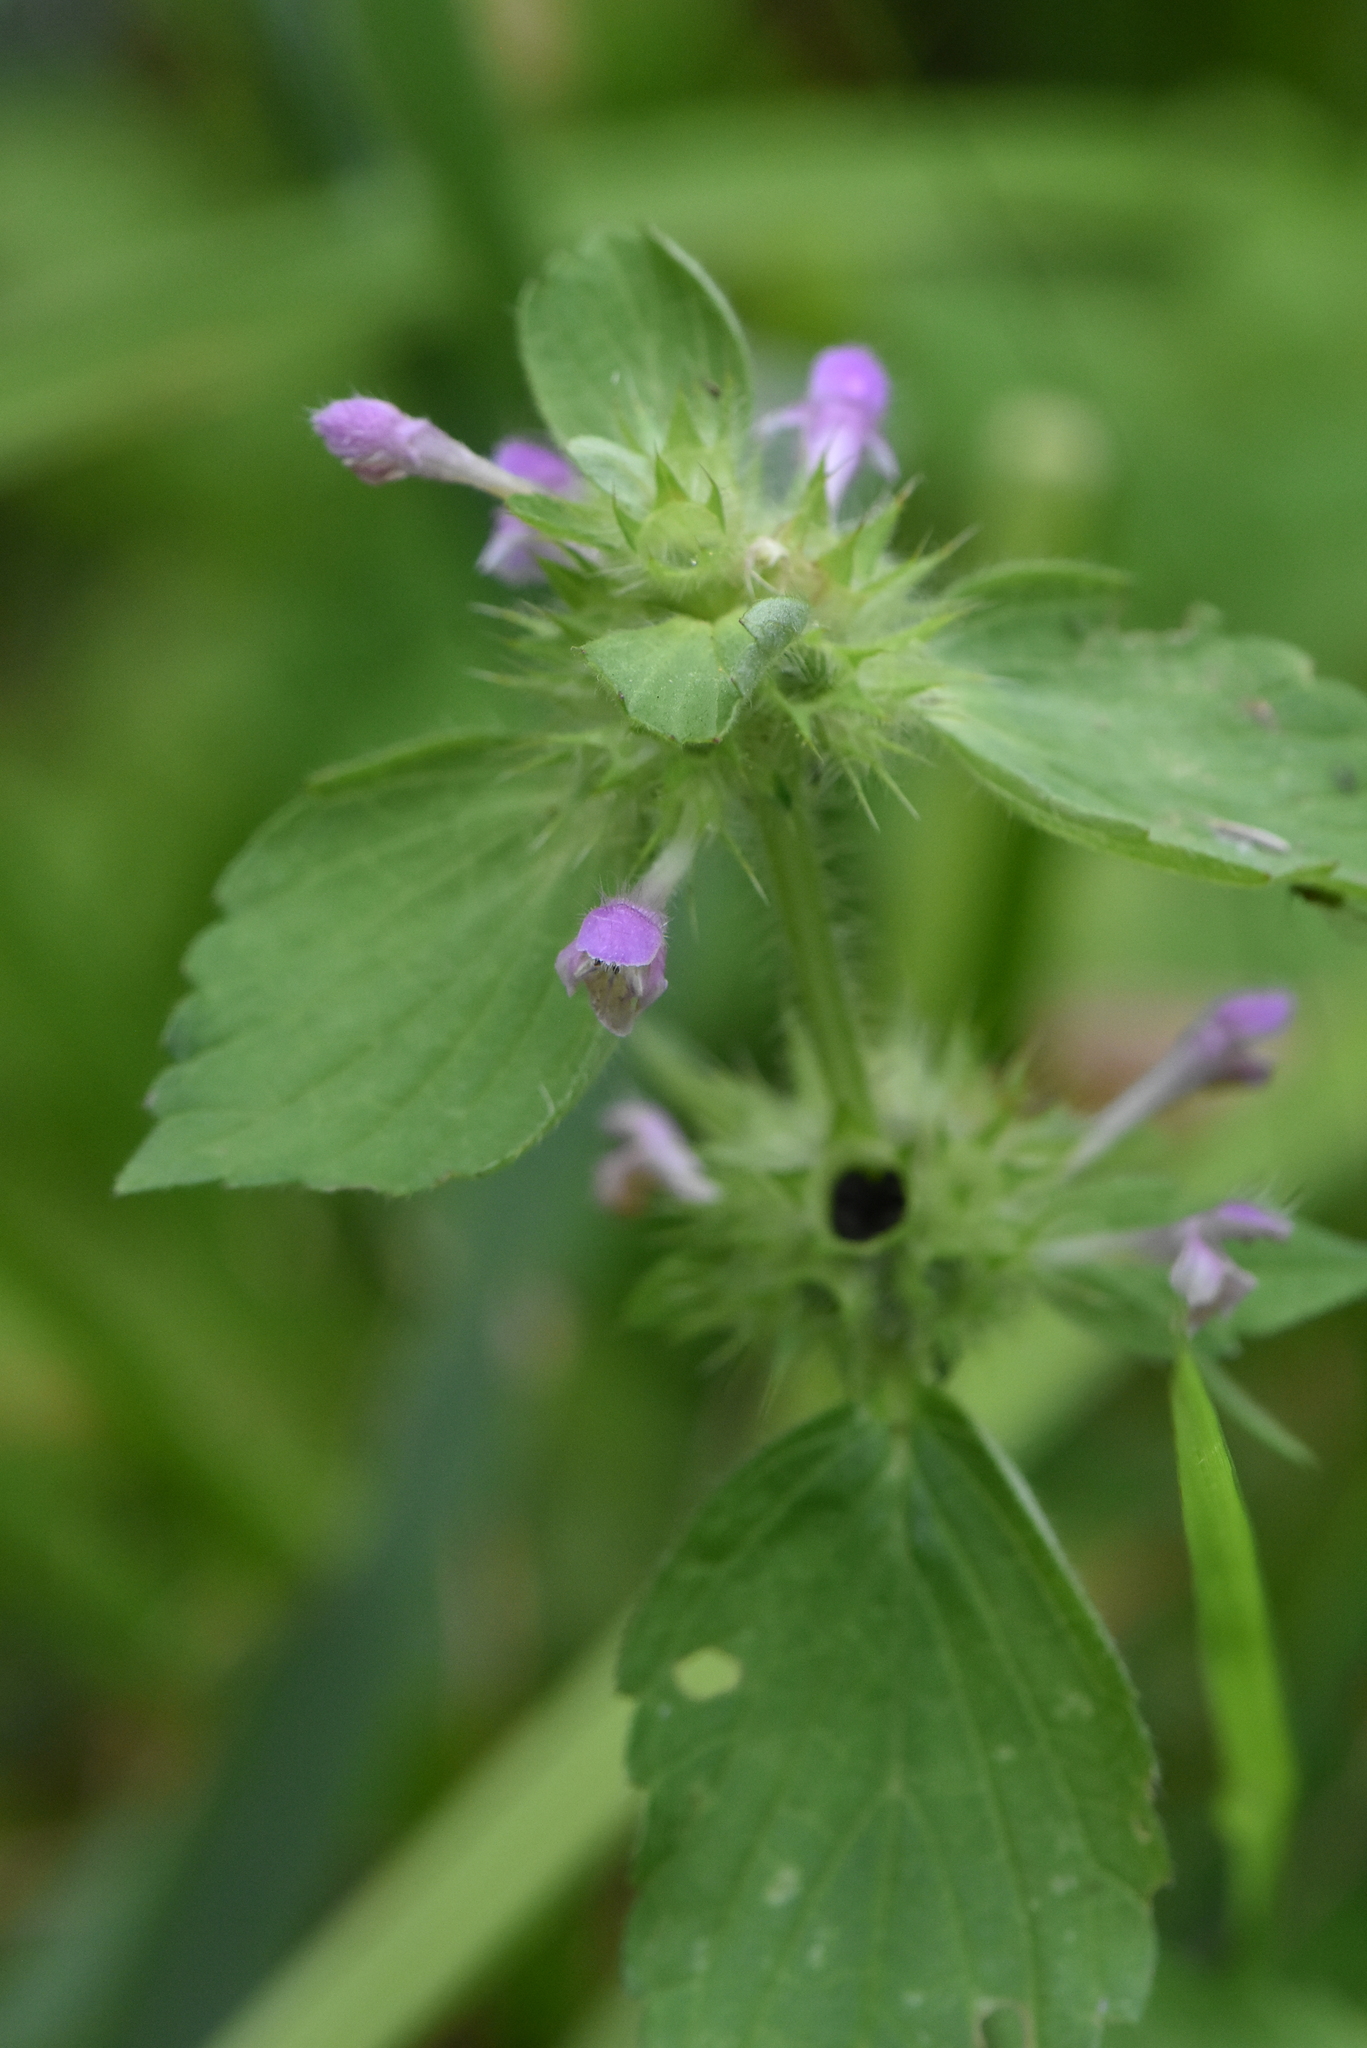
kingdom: Plantae
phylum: Tracheophyta
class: Magnoliopsida
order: Lamiales
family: Lamiaceae
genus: Galeopsis
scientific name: Galeopsis bifida
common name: Bifid hemp-nettle
